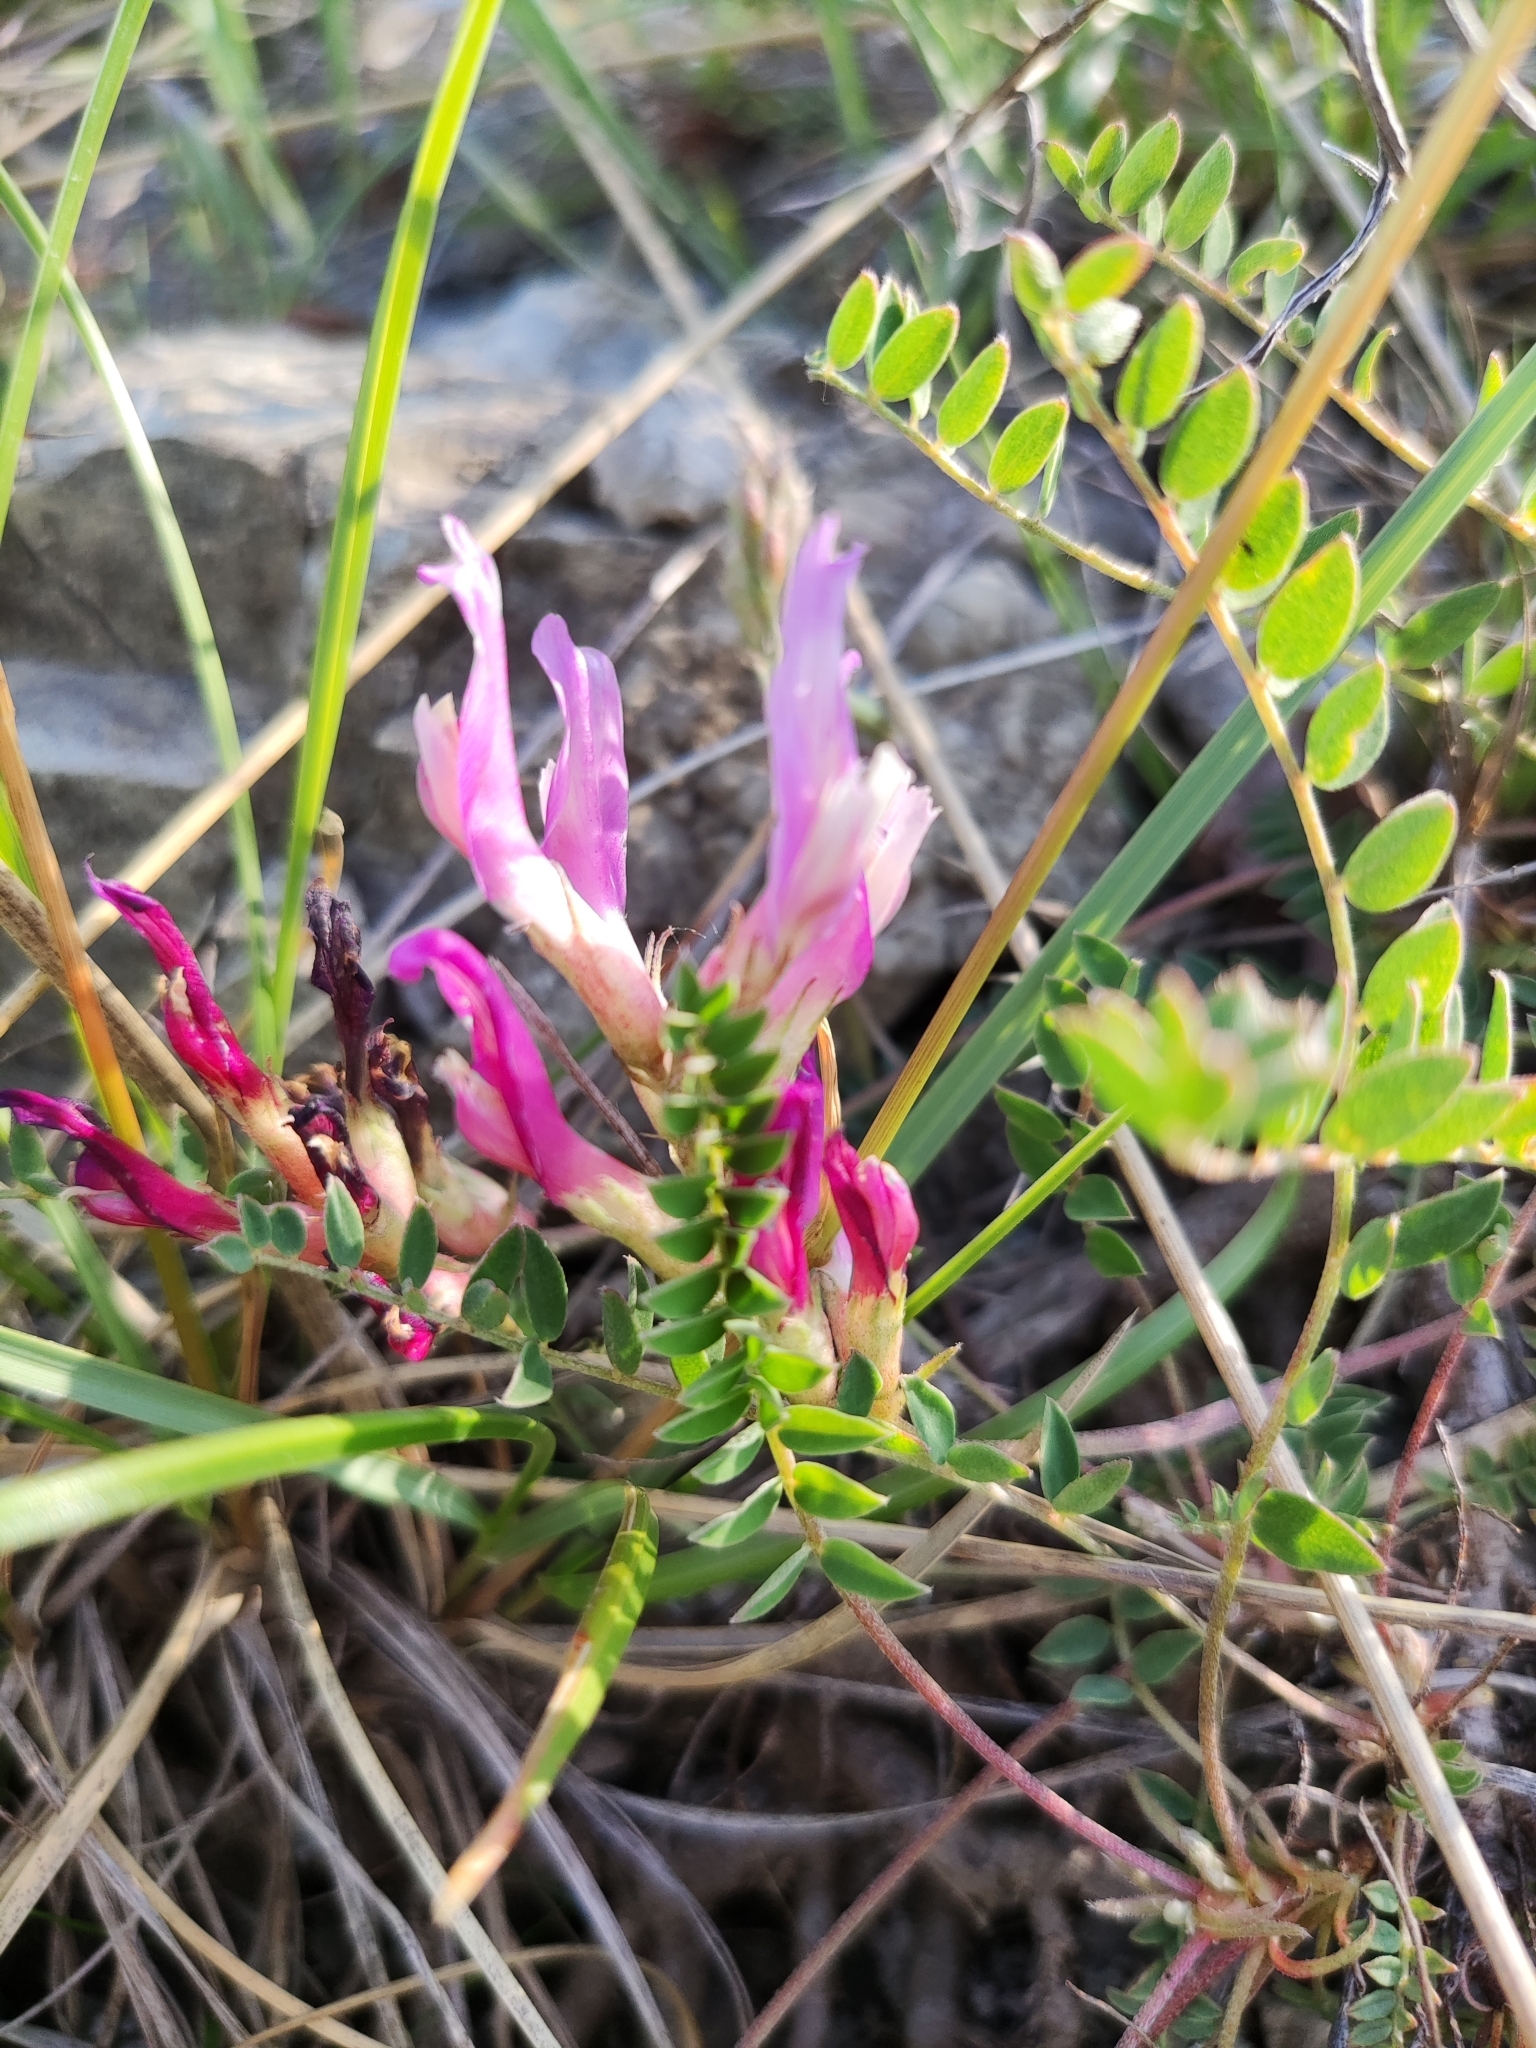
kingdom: Plantae
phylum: Tracheophyta
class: Magnoliopsida
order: Fabales
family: Fabaceae
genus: Astragalus
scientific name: Astragalus monspessulanus
